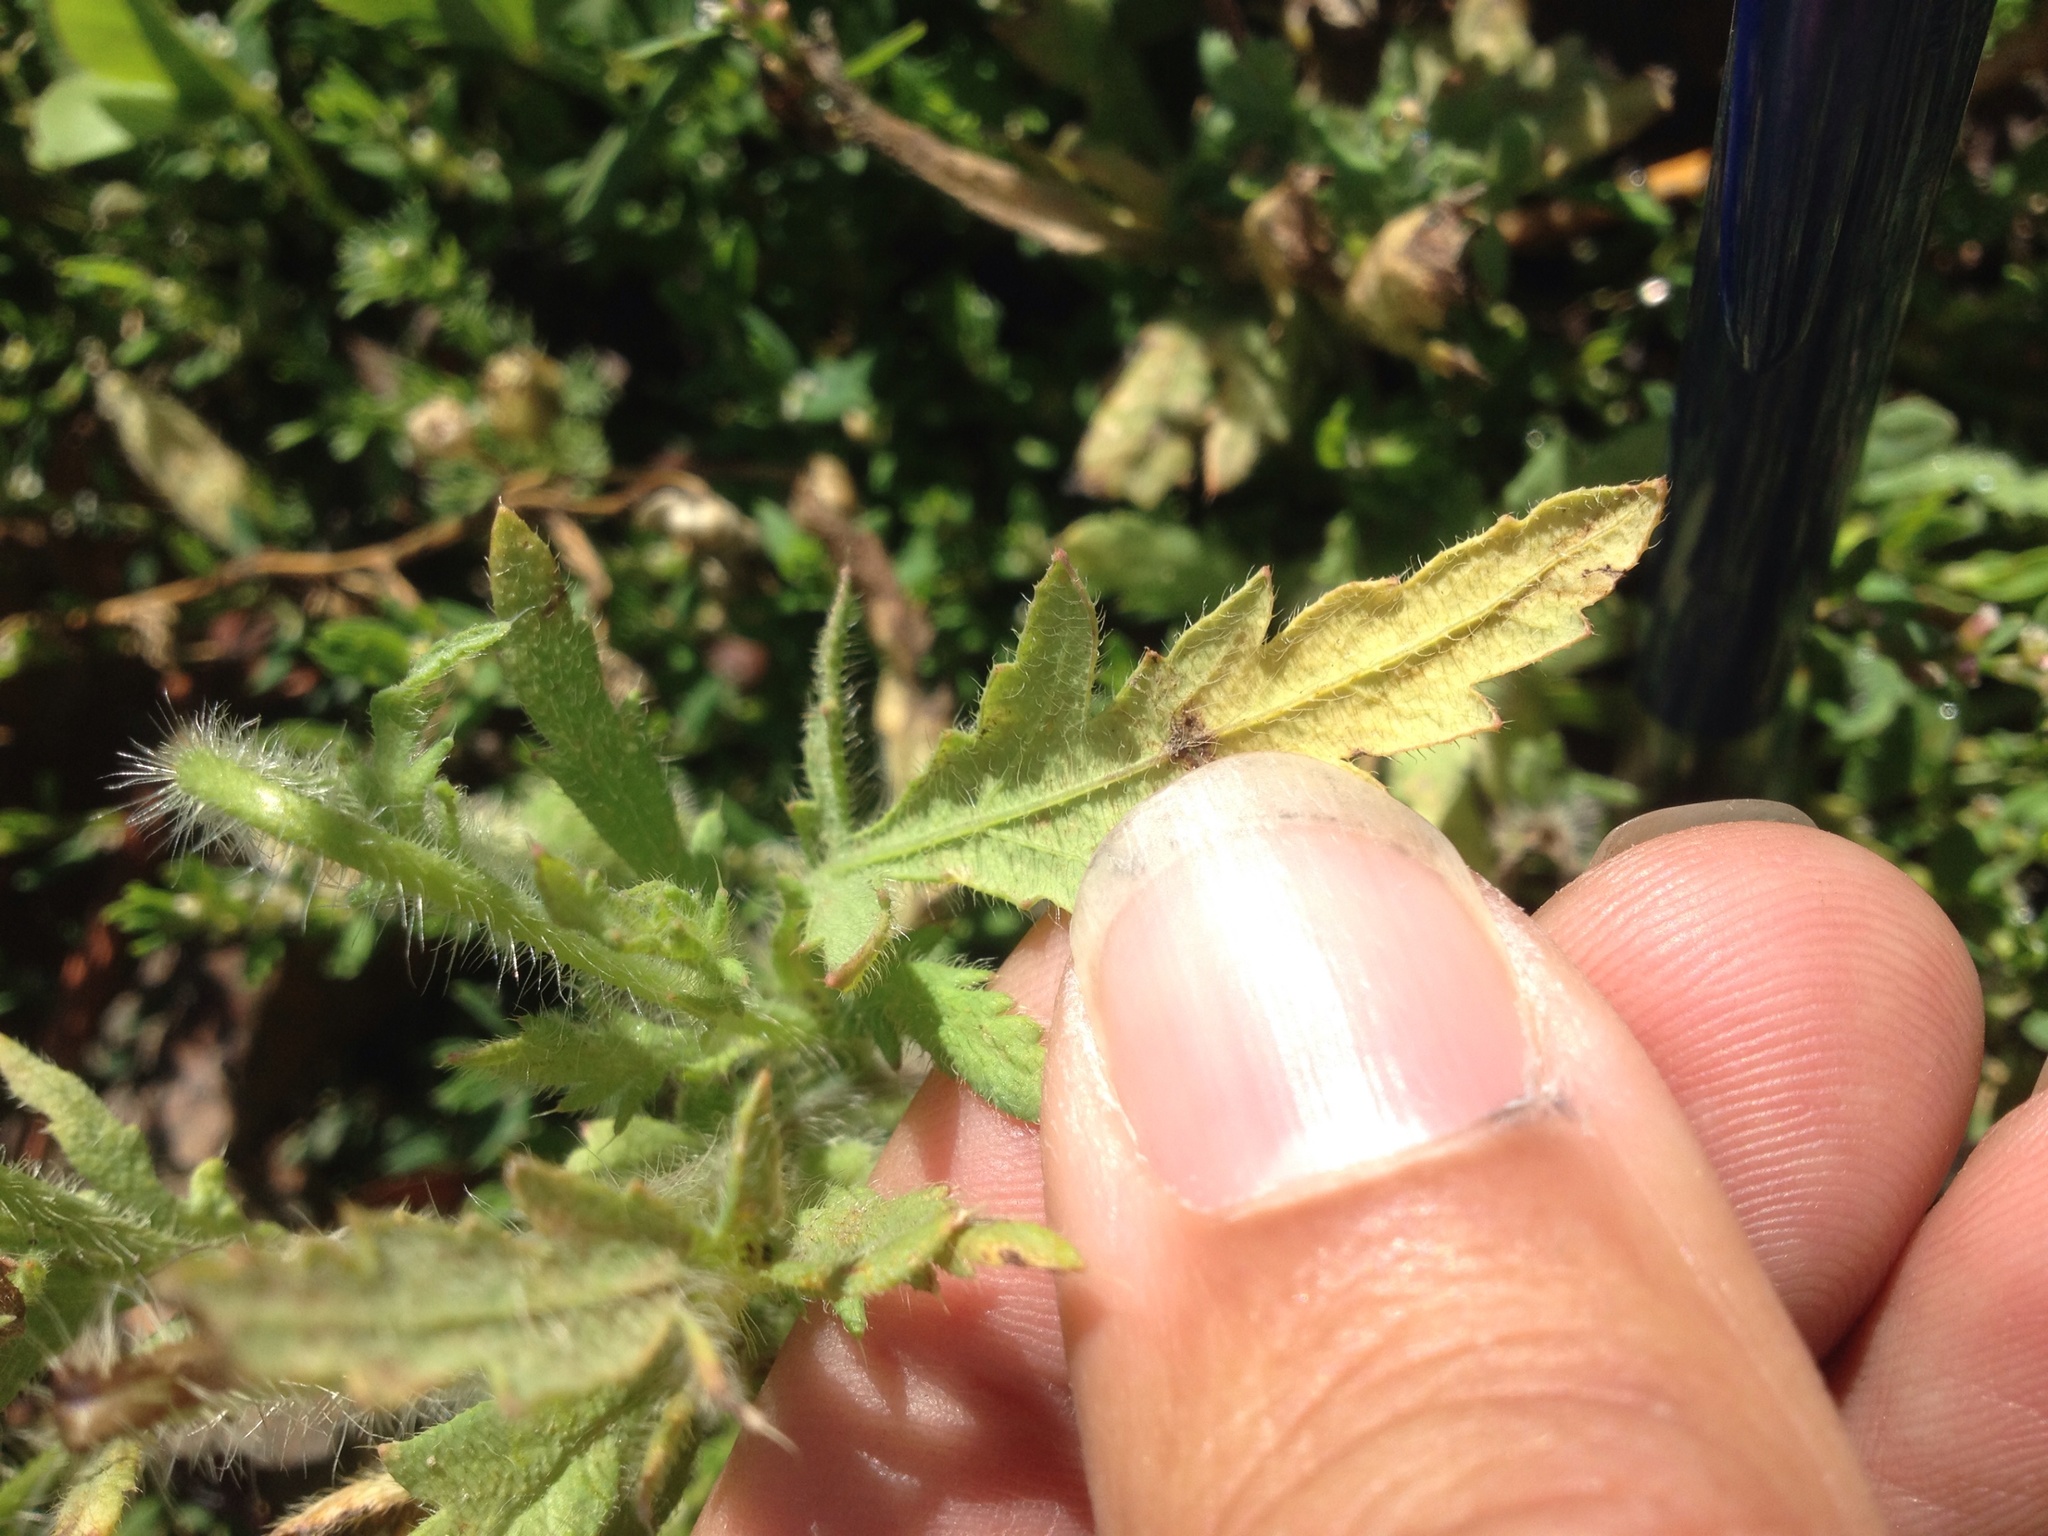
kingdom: Plantae
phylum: Tracheophyta
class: Magnoliopsida
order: Ranunculales
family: Papaveraceae
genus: Papaver
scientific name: Papaver rhoeas
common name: Corn poppy
